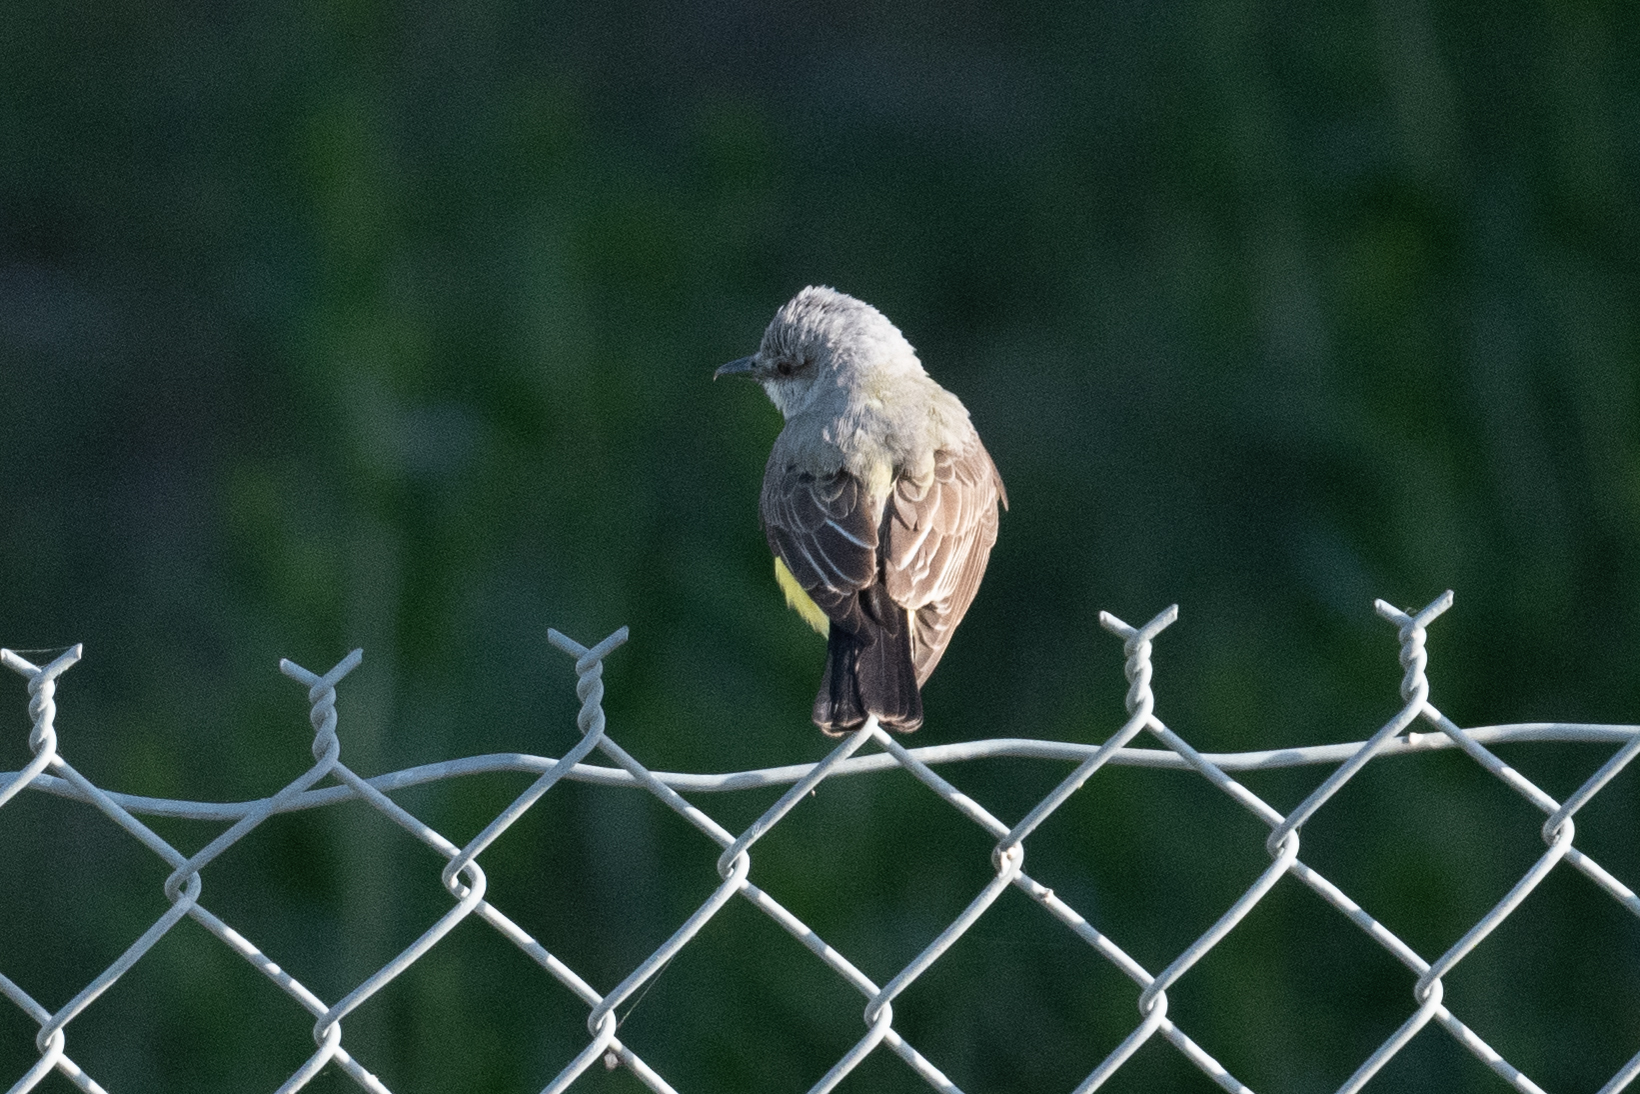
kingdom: Animalia
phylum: Chordata
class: Aves
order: Passeriformes
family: Tyrannidae
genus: Tyrannus
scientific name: Tyrannus verticalis
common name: Western kingbird
